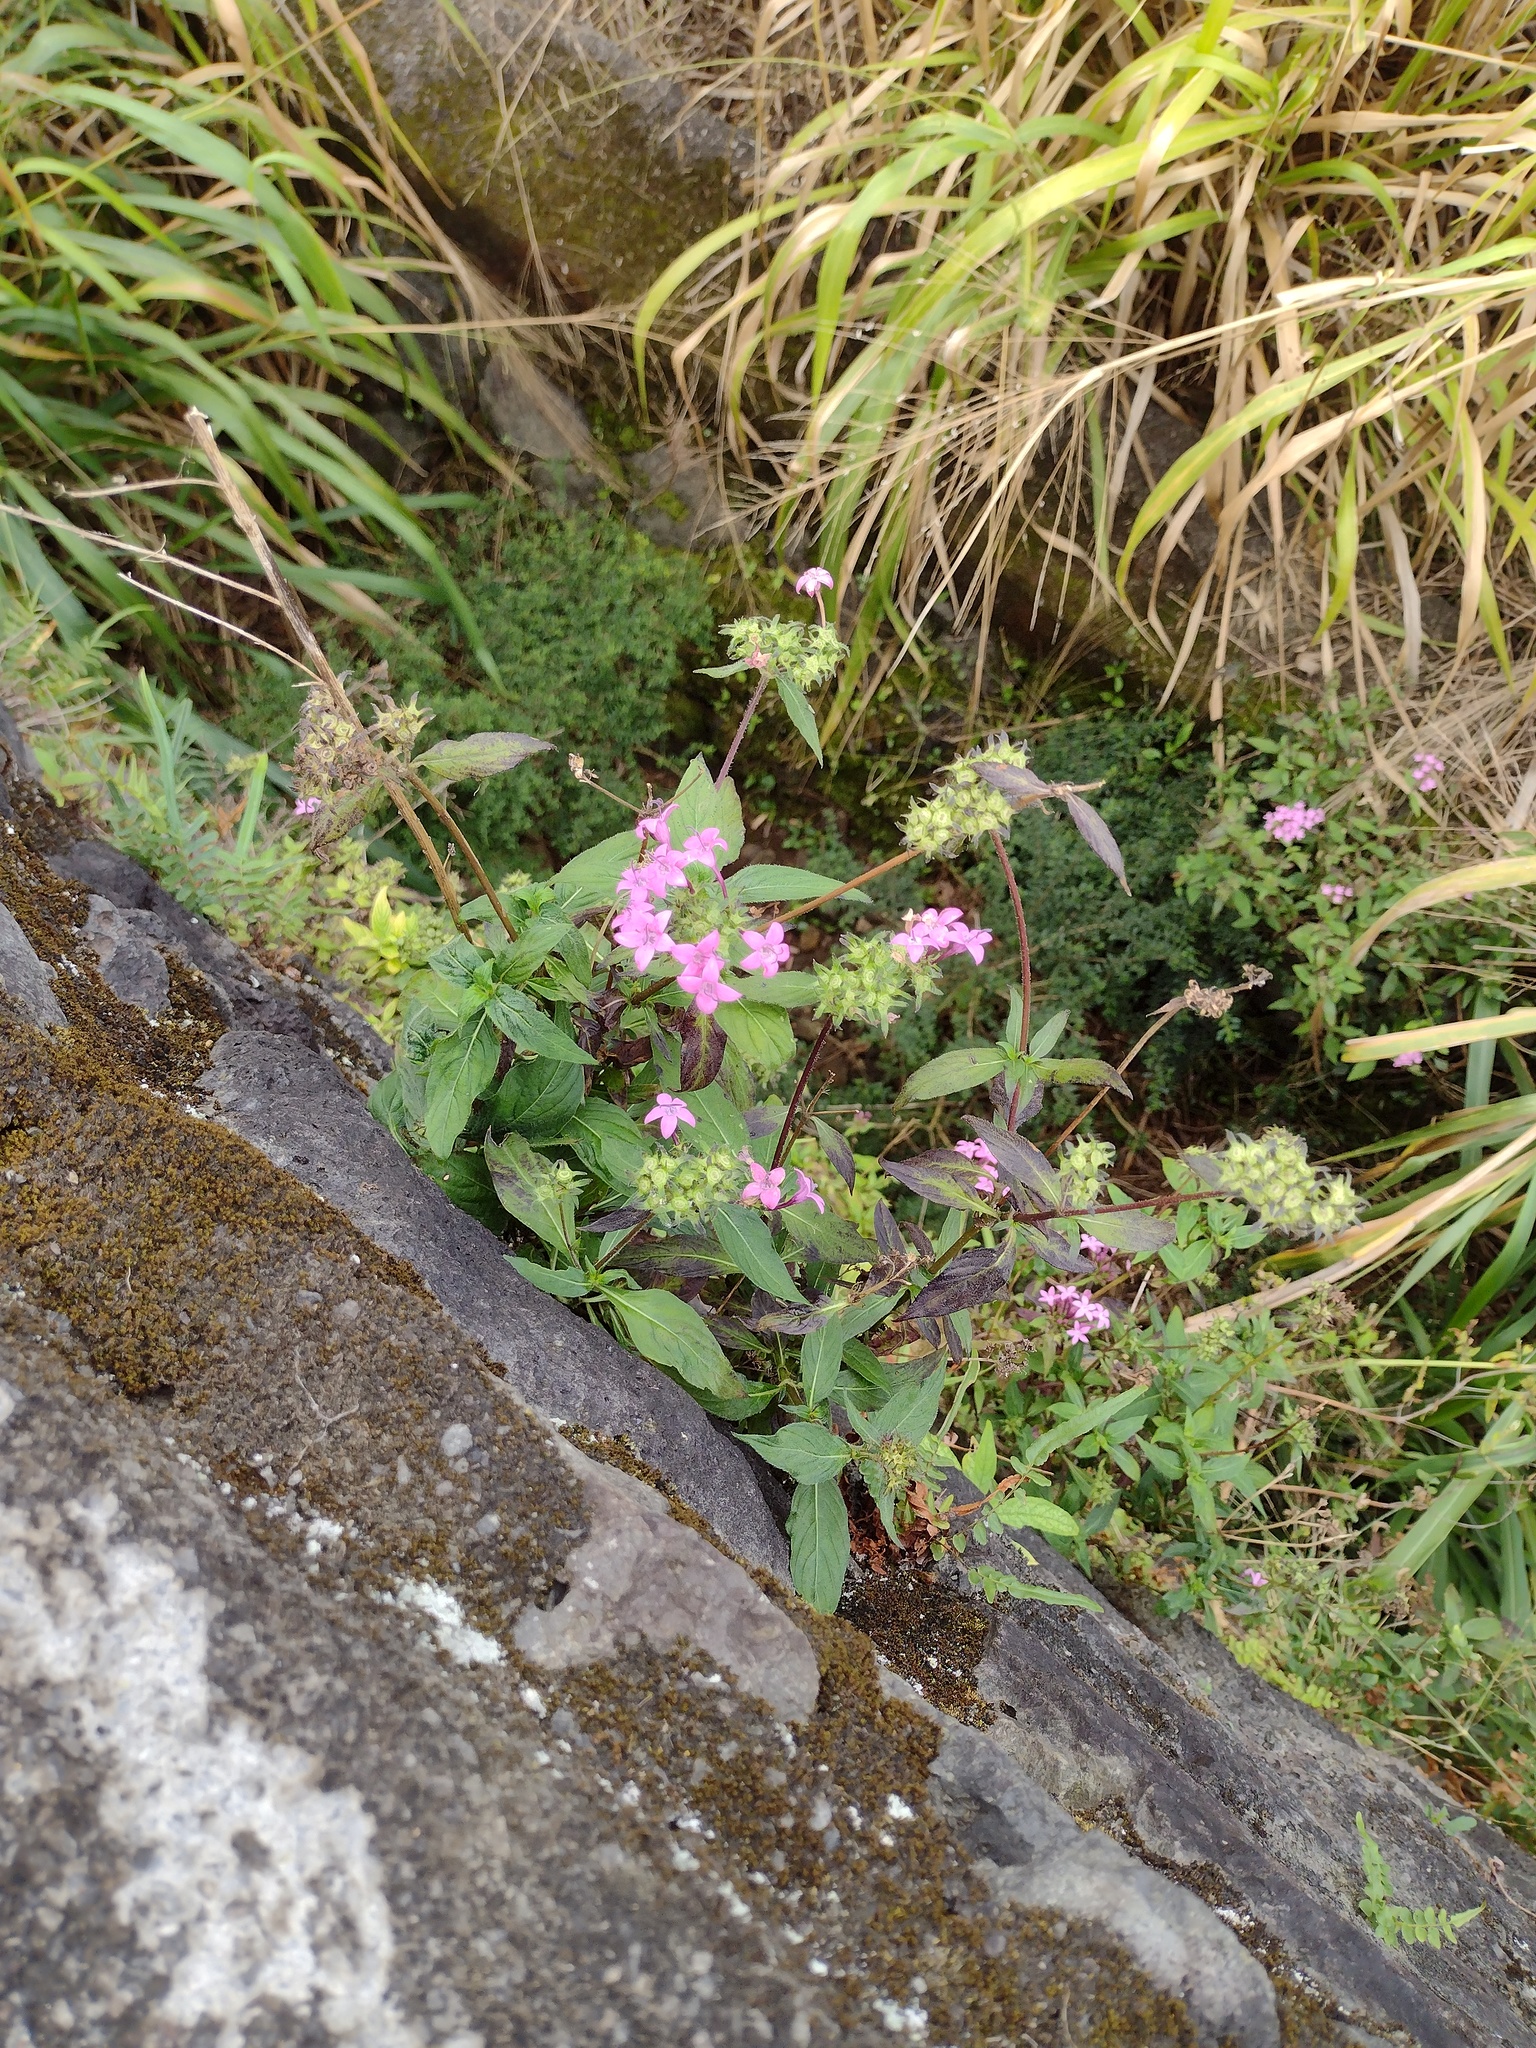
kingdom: Plantae
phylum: Tracheophyta
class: Magnoliopsida
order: Gentianales
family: Rubiaceae
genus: Pentas
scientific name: Pentas lanceolata
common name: Egyptian starcluster
